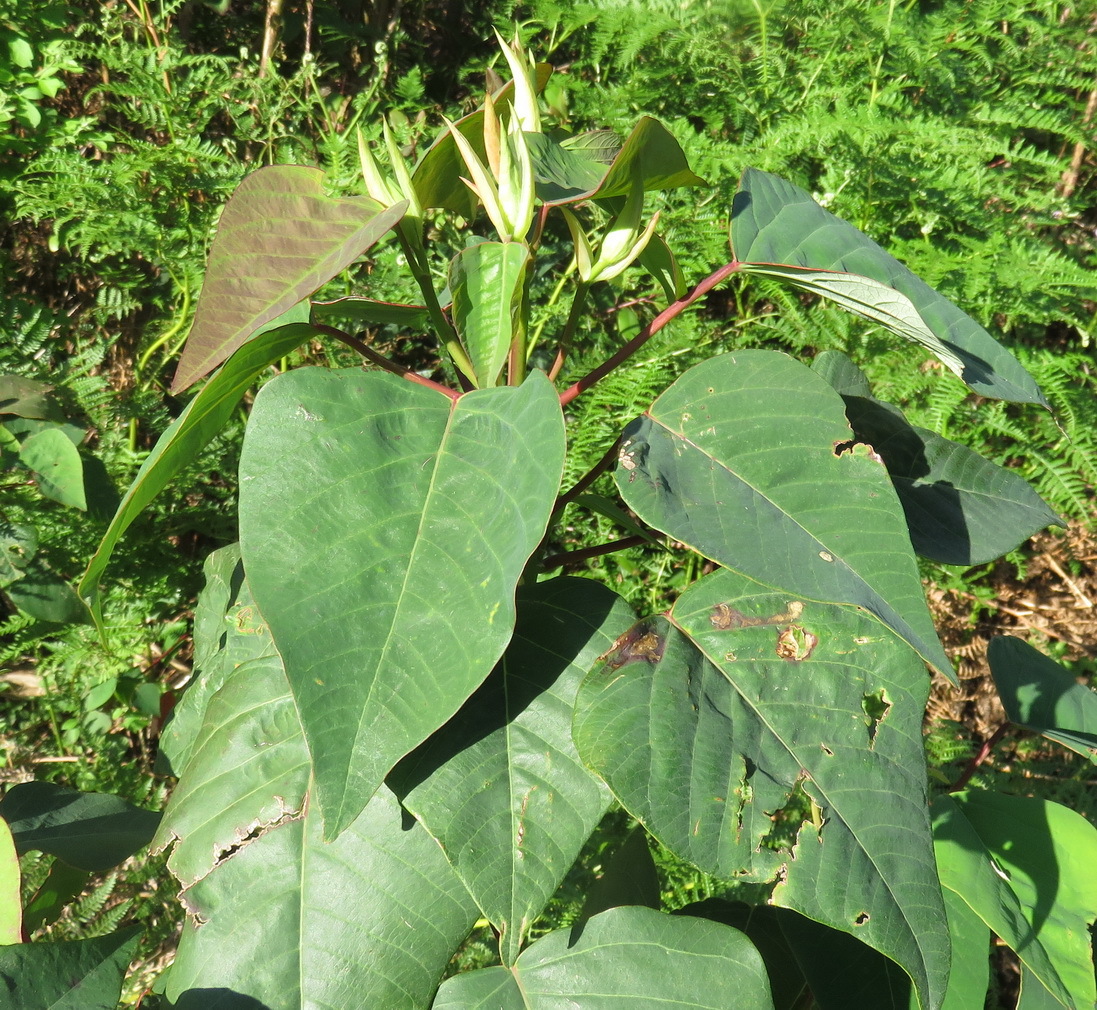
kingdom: Plantae
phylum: Tracheophyta
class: Magnoliopsida
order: Malpighiales
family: Euphorbiaceae
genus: Homalanthus
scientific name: Homalanthus populifolius
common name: Queensland poplar
